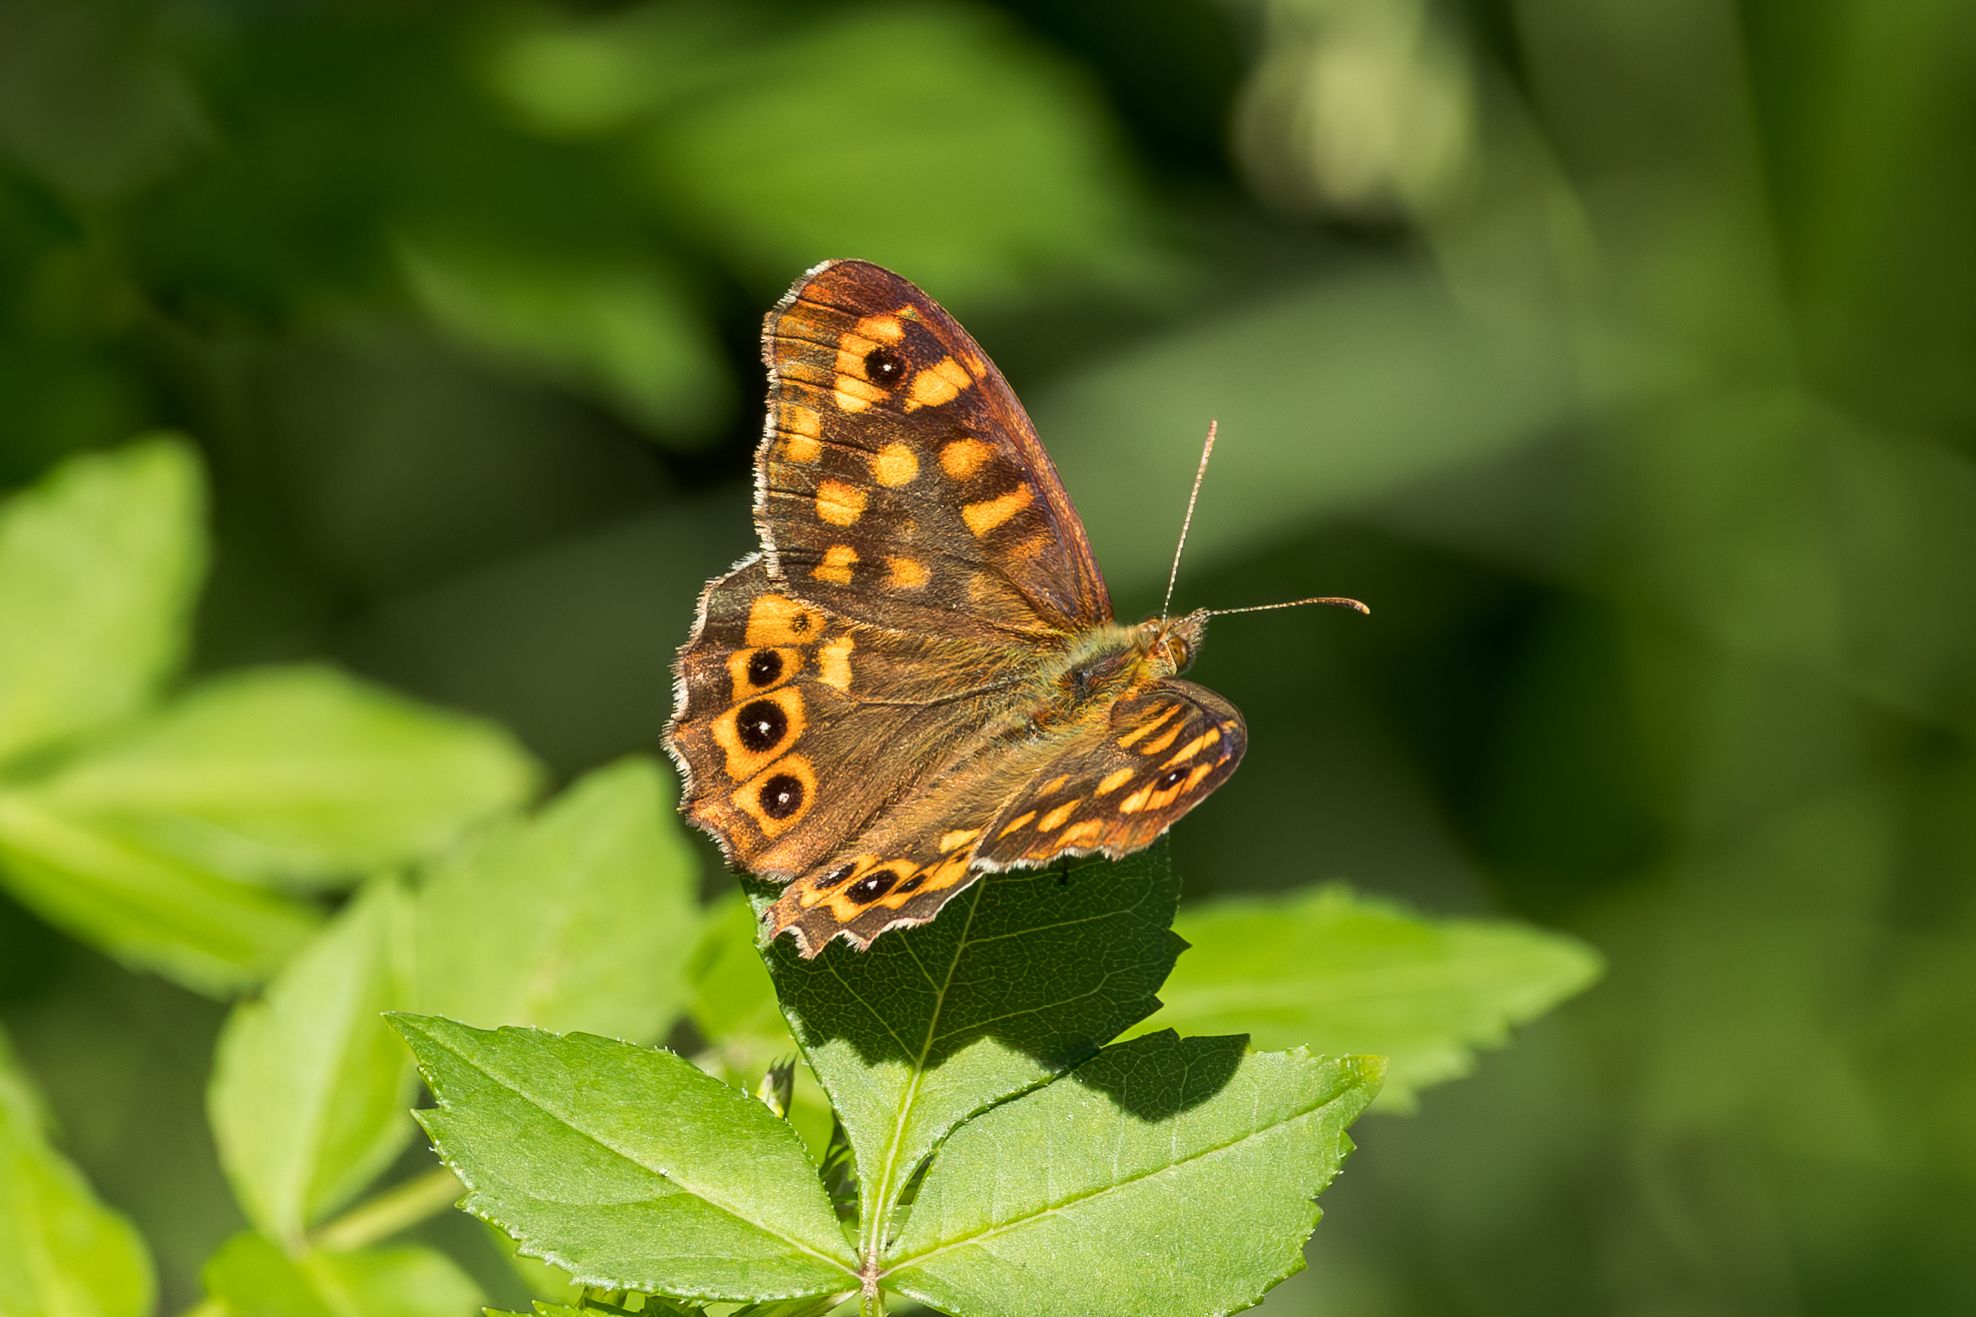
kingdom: Animalia
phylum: Arthropoda
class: Insecta
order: Lepidoptera
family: Nymphalidae
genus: Pararge
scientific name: Pararge aegeria
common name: Speckled wood
